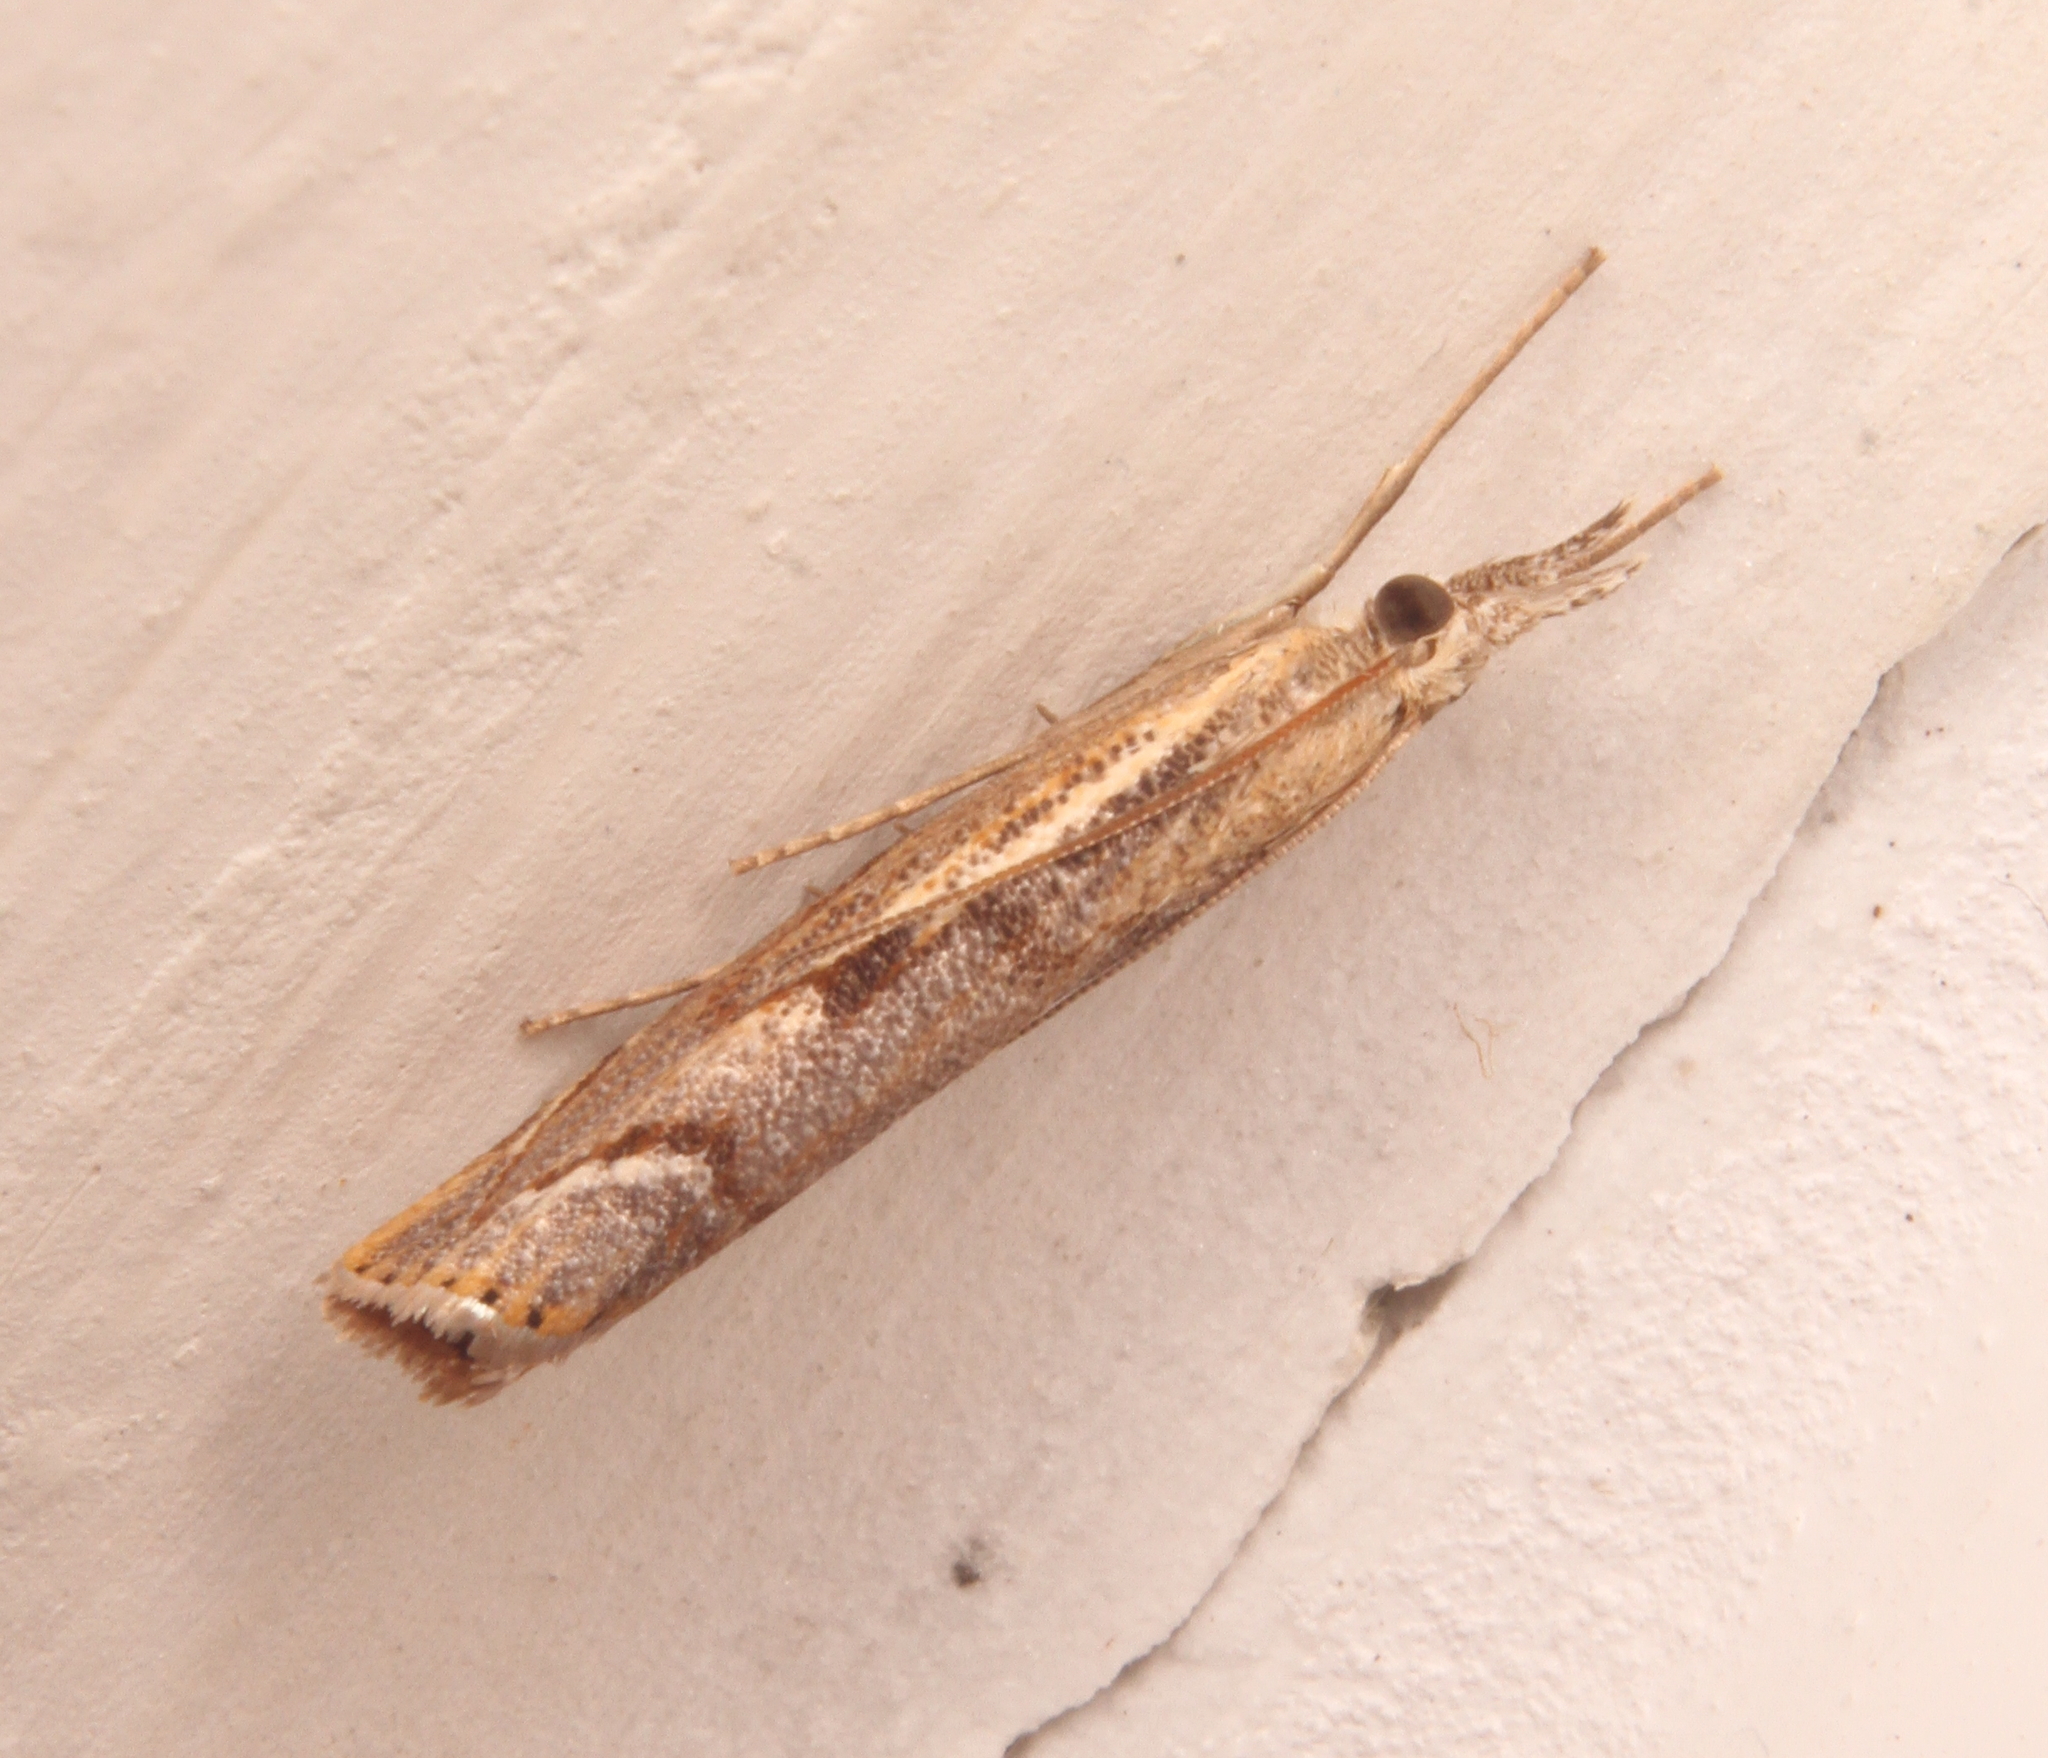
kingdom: Animalia
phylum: Arthropoda
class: Insecta
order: Lepidoptera
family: Crambidae
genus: Agriphila
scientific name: Agriphila geniculea
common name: Elbow-stripe grass-veneer
